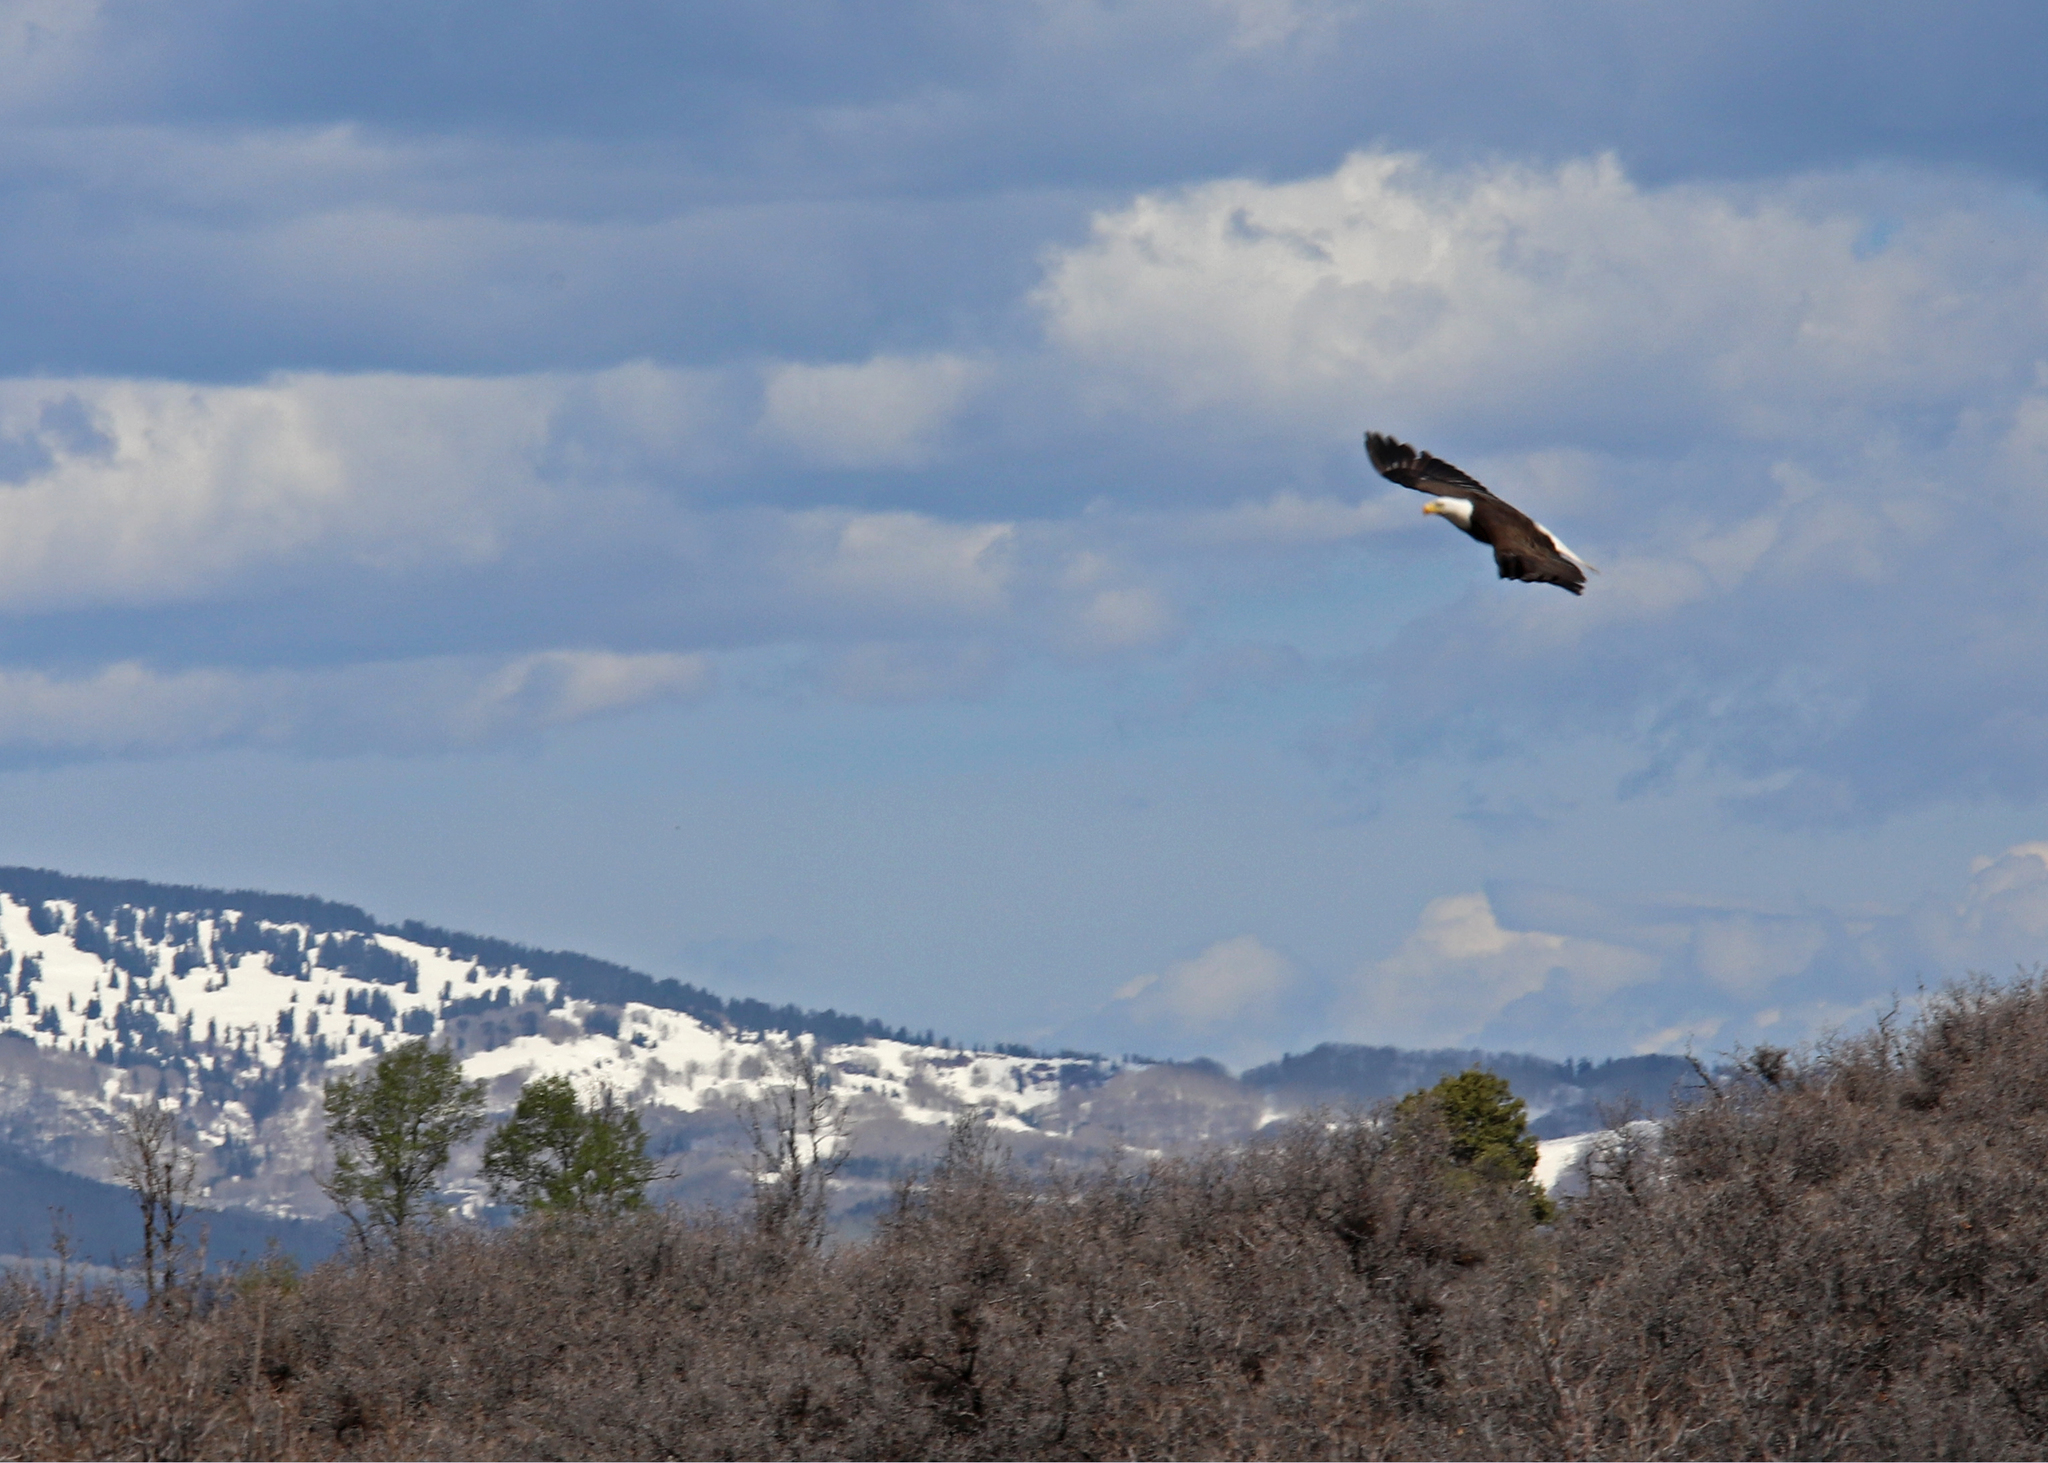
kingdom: Animalia
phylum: Chordata
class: Aves
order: Accipitriformes
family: Accipitridae
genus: Haliaeetus
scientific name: Haliaeetus leucocephalus
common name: Bald eagle
